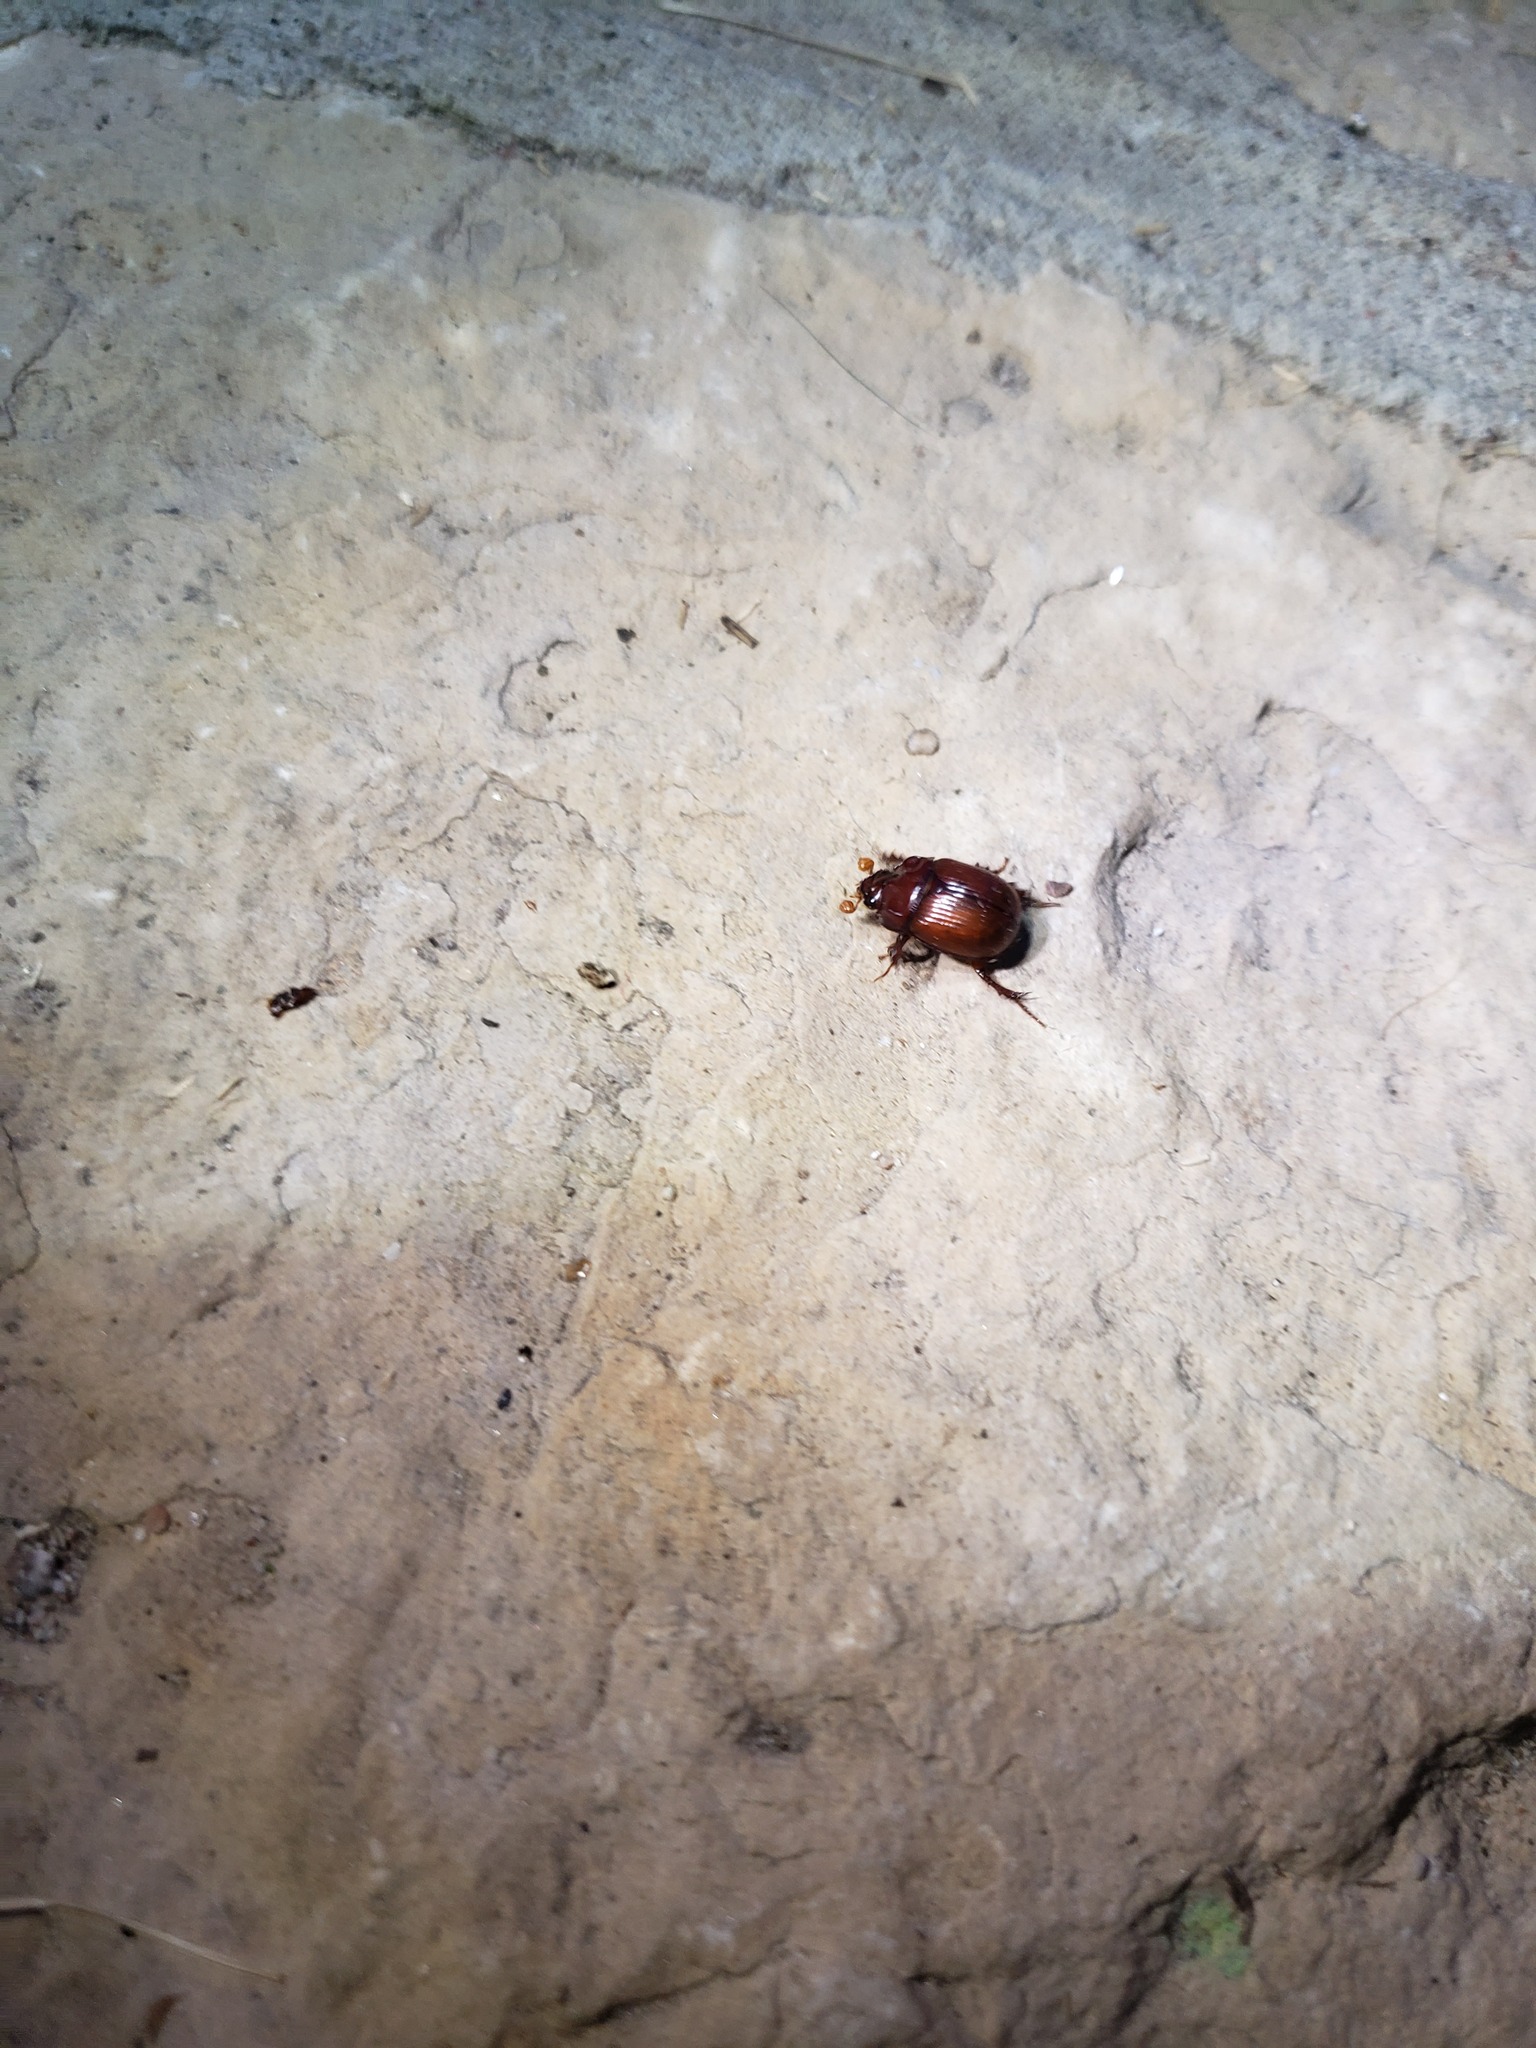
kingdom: Animalia
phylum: Arthropoda
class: Insecta
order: Coleoptera
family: Geotrupidae
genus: Odonteus
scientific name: Odonteus liebecki
